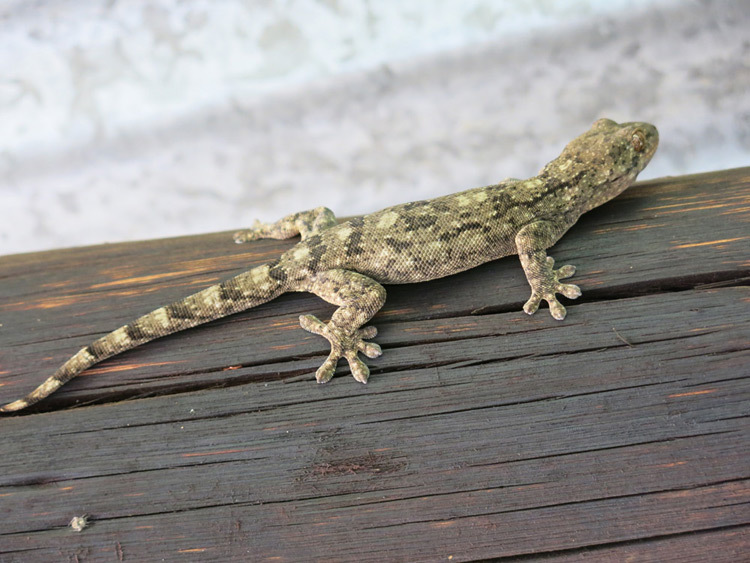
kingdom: Animalia
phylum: Chordata
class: Squamata
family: Gekkonidae
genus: Homopholis
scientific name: Homopholis walbergii
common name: Wahlberg’s velvet gecko
